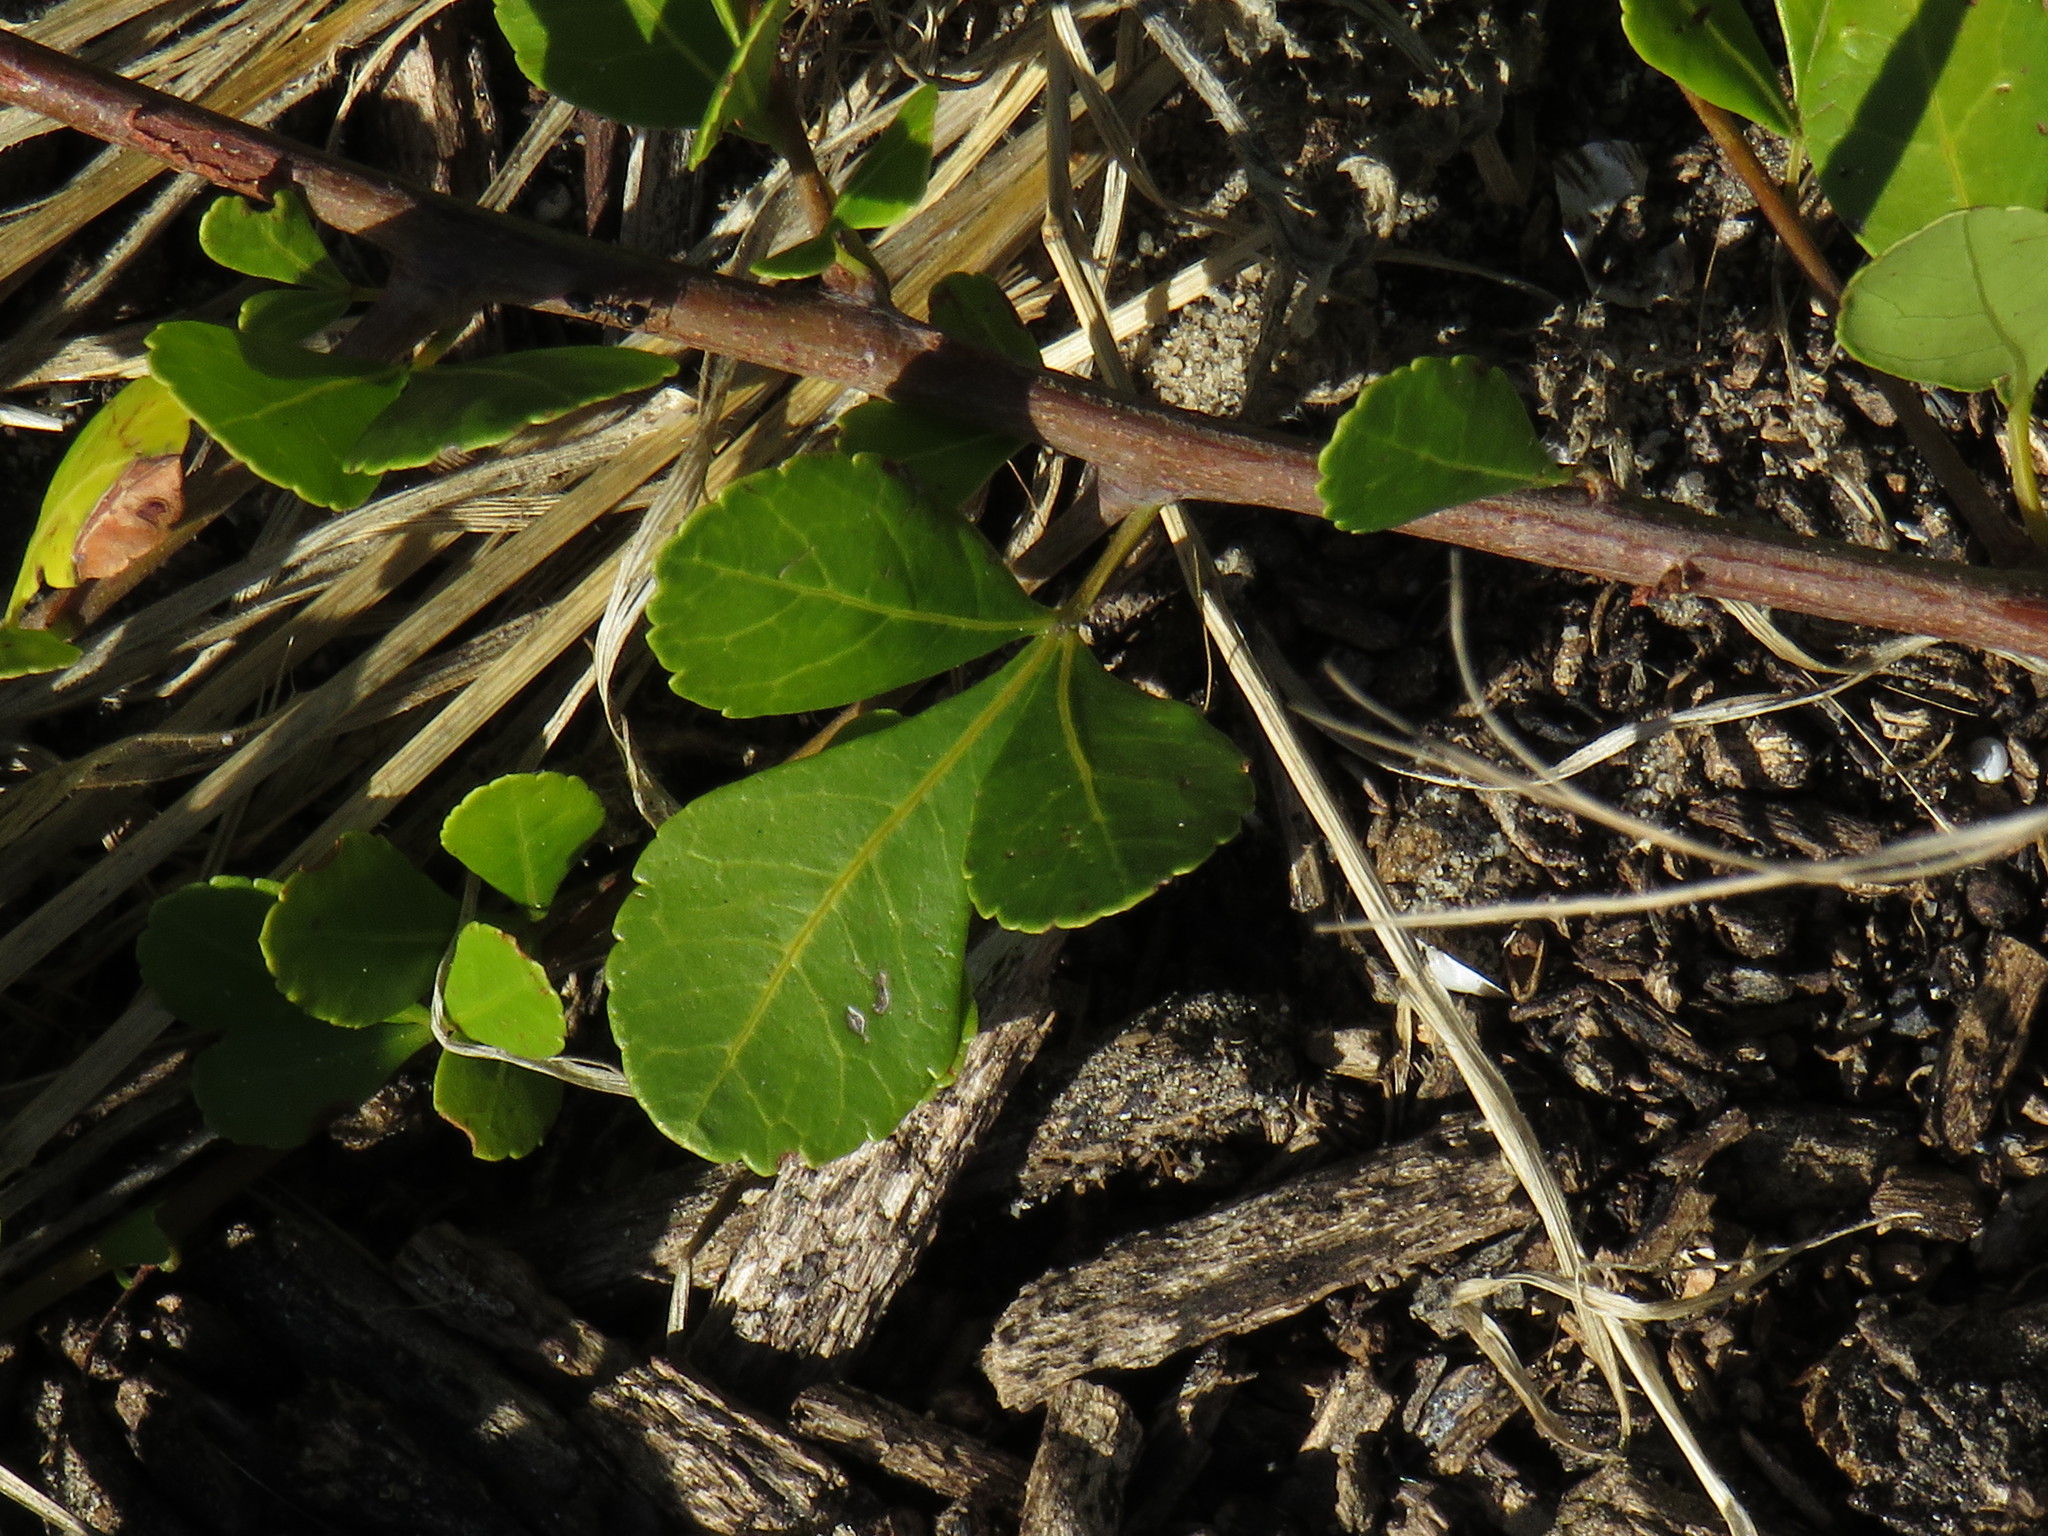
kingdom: Plantae
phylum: Tracheophyta
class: Magnoliopsida
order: Sapindales
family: Anacardiaceae
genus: Searsia
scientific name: Searsia crenata
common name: Crowberry
